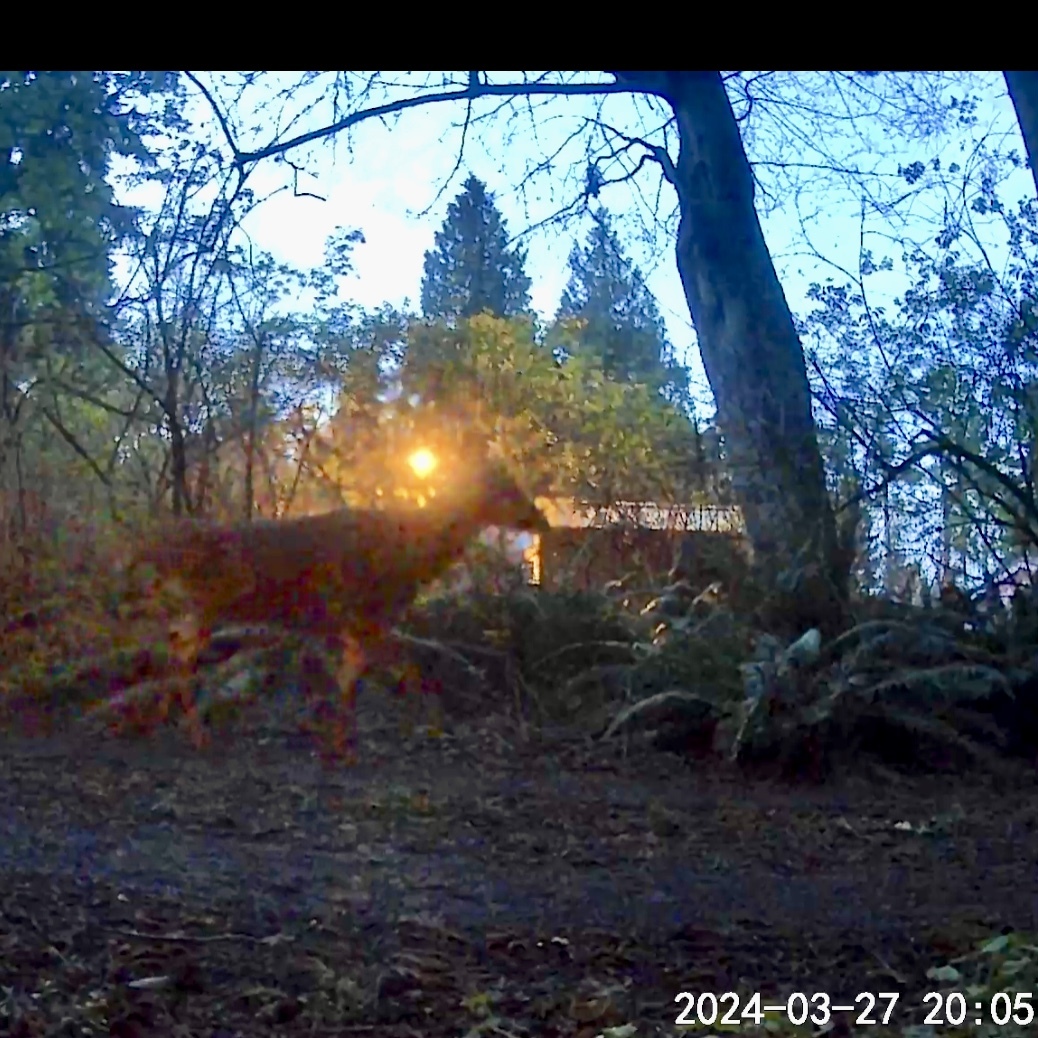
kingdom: Animalia
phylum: Chordata
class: Mammalia
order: Artiodactyla
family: Cervidae
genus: Odocoileus
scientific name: Odocoileus hemionus
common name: Mule deer
